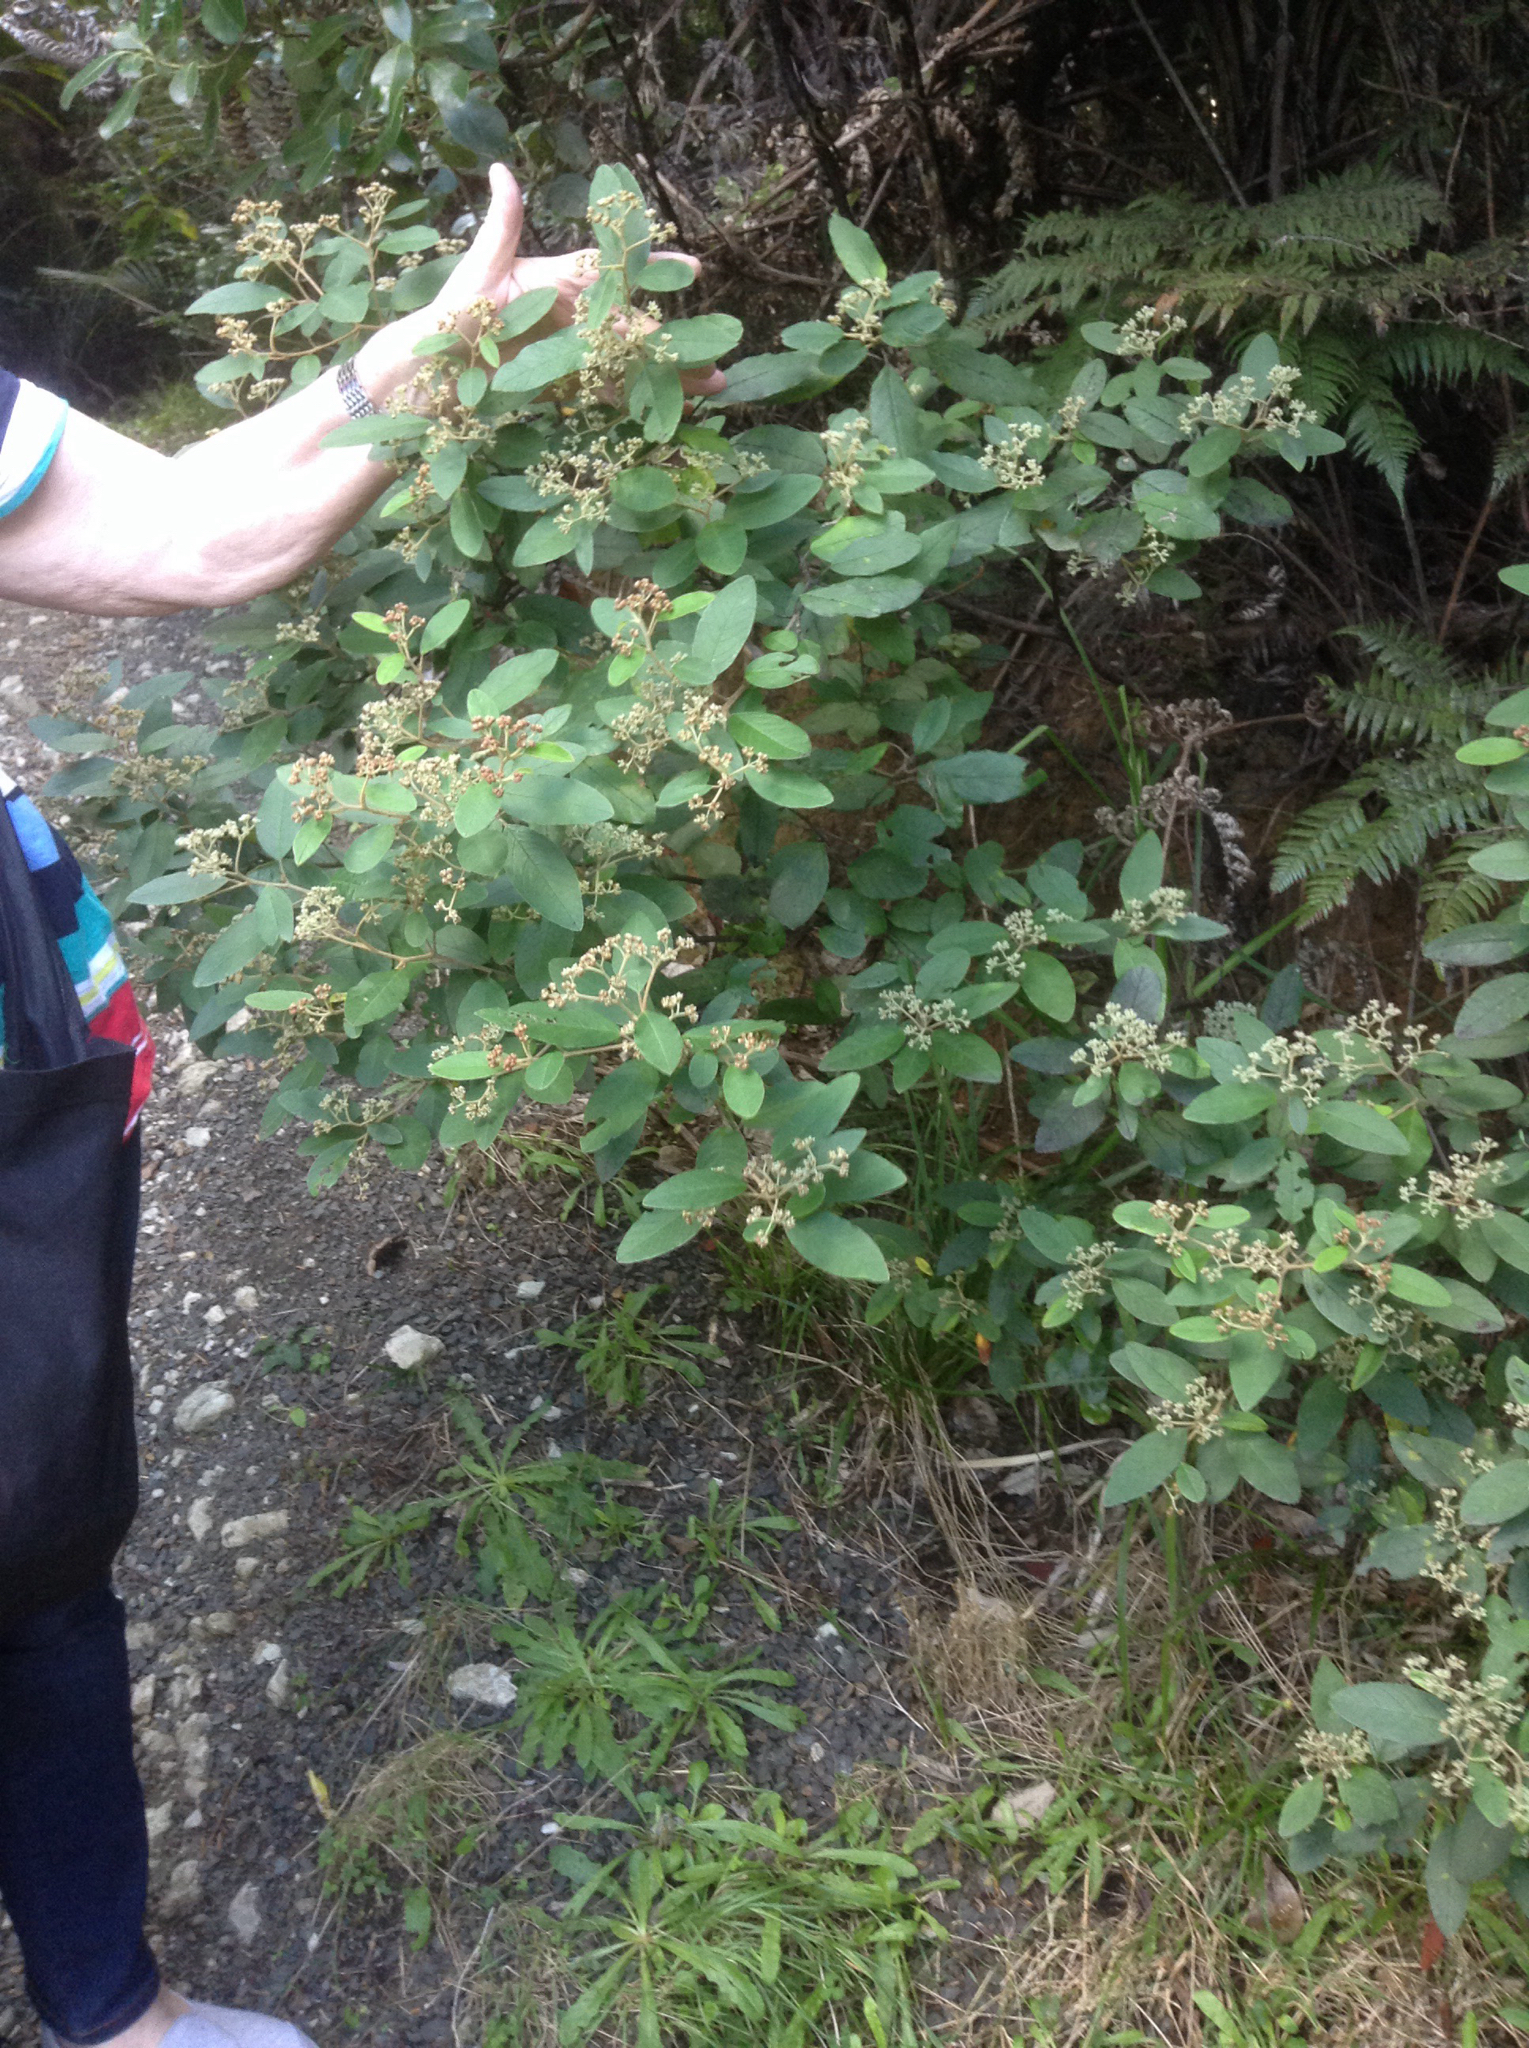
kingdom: Plantae
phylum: Tracheophyta
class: Magnoliopsida
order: Rosales
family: Rhamnaceae
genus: Pomaderris
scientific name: Pomaderris kumeraho
